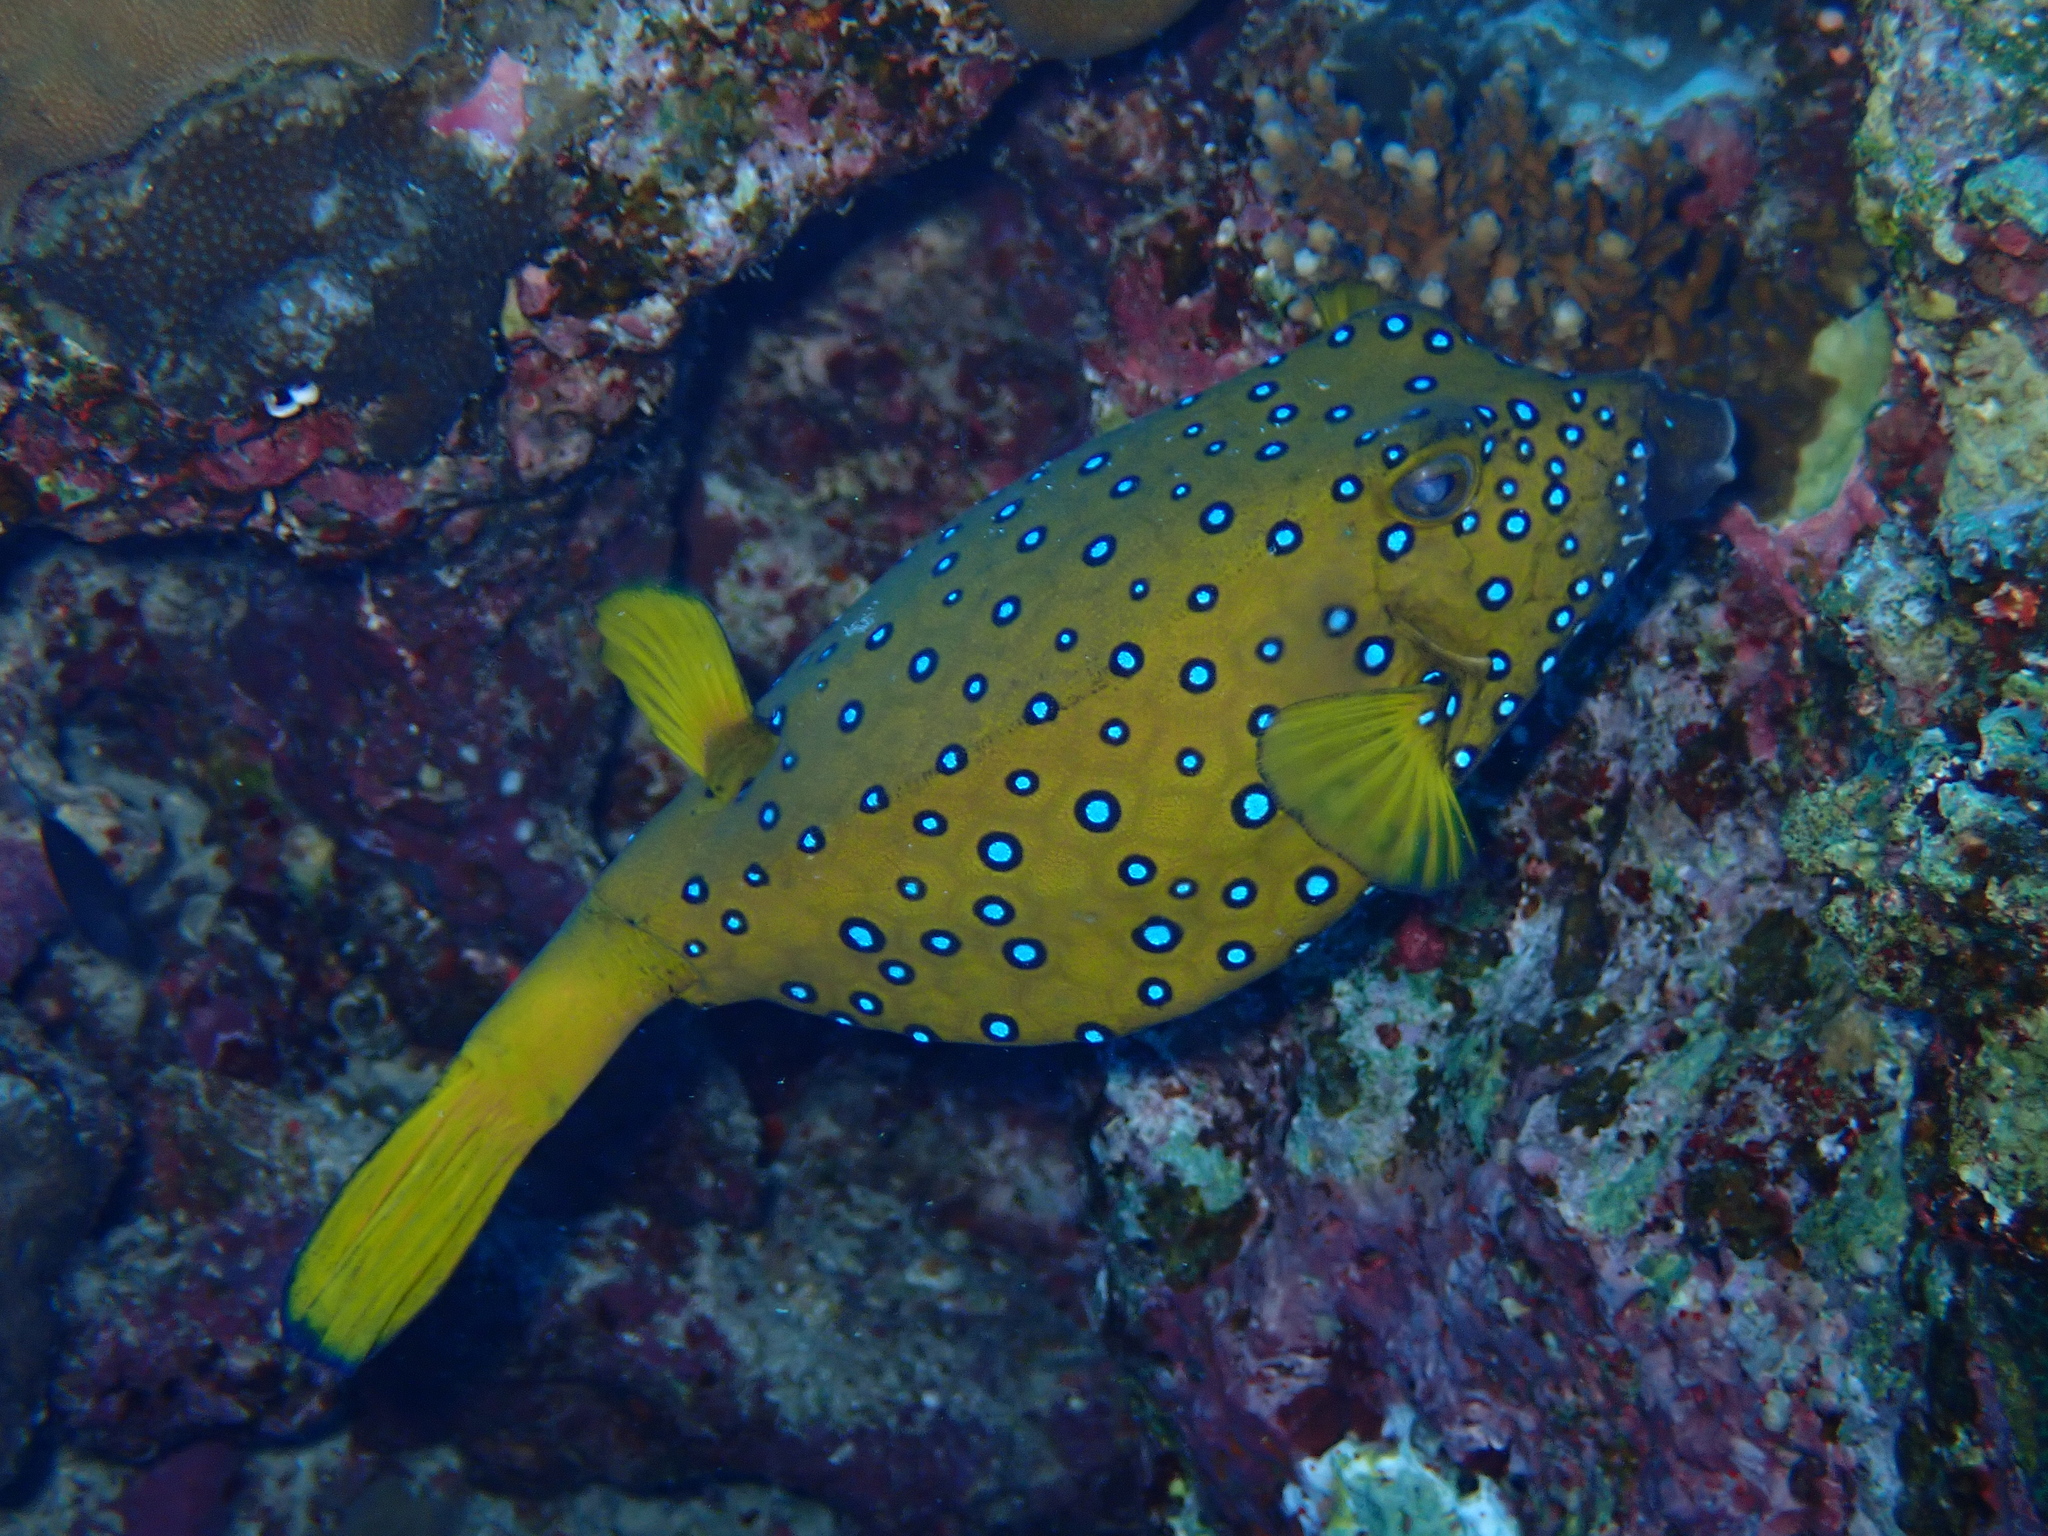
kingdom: Animalia
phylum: Chordata
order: Tetraodontiformes
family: Ostraciidae
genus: Ostracion
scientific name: Ostracion cubicus
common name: Cube trunkfish
